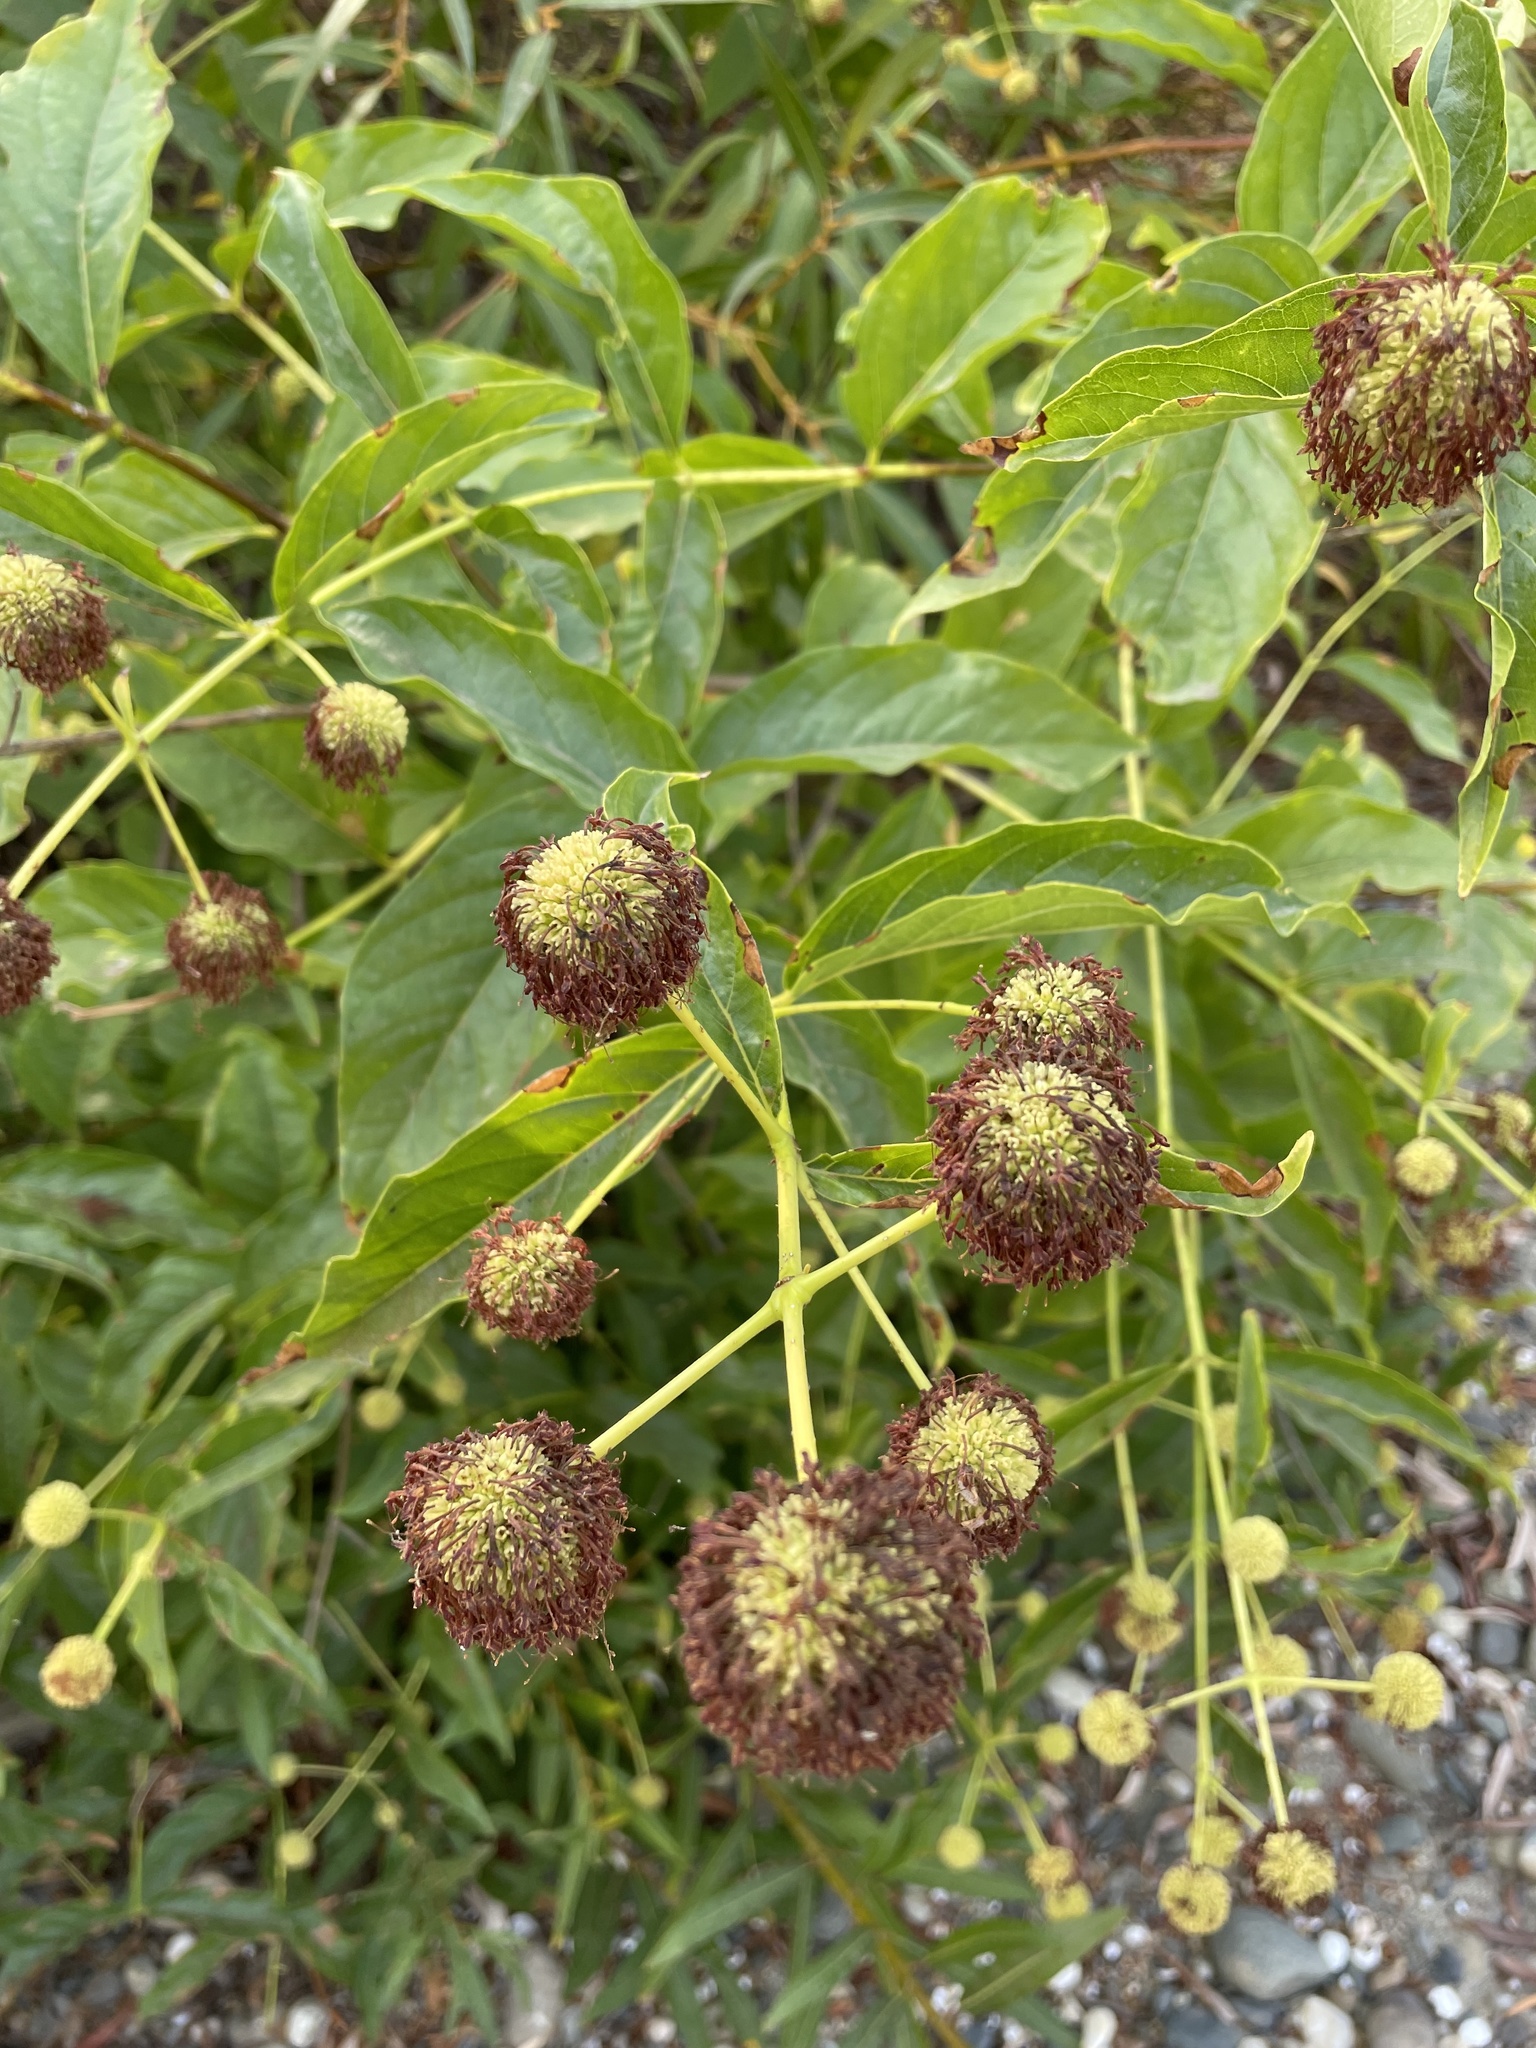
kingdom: Plantae
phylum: Tracheophyta
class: Magnoliopsida
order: Gentianales
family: Rubiaceae
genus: Cephalanthus
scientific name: Cephalanthus occidentalis
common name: Button-willow
